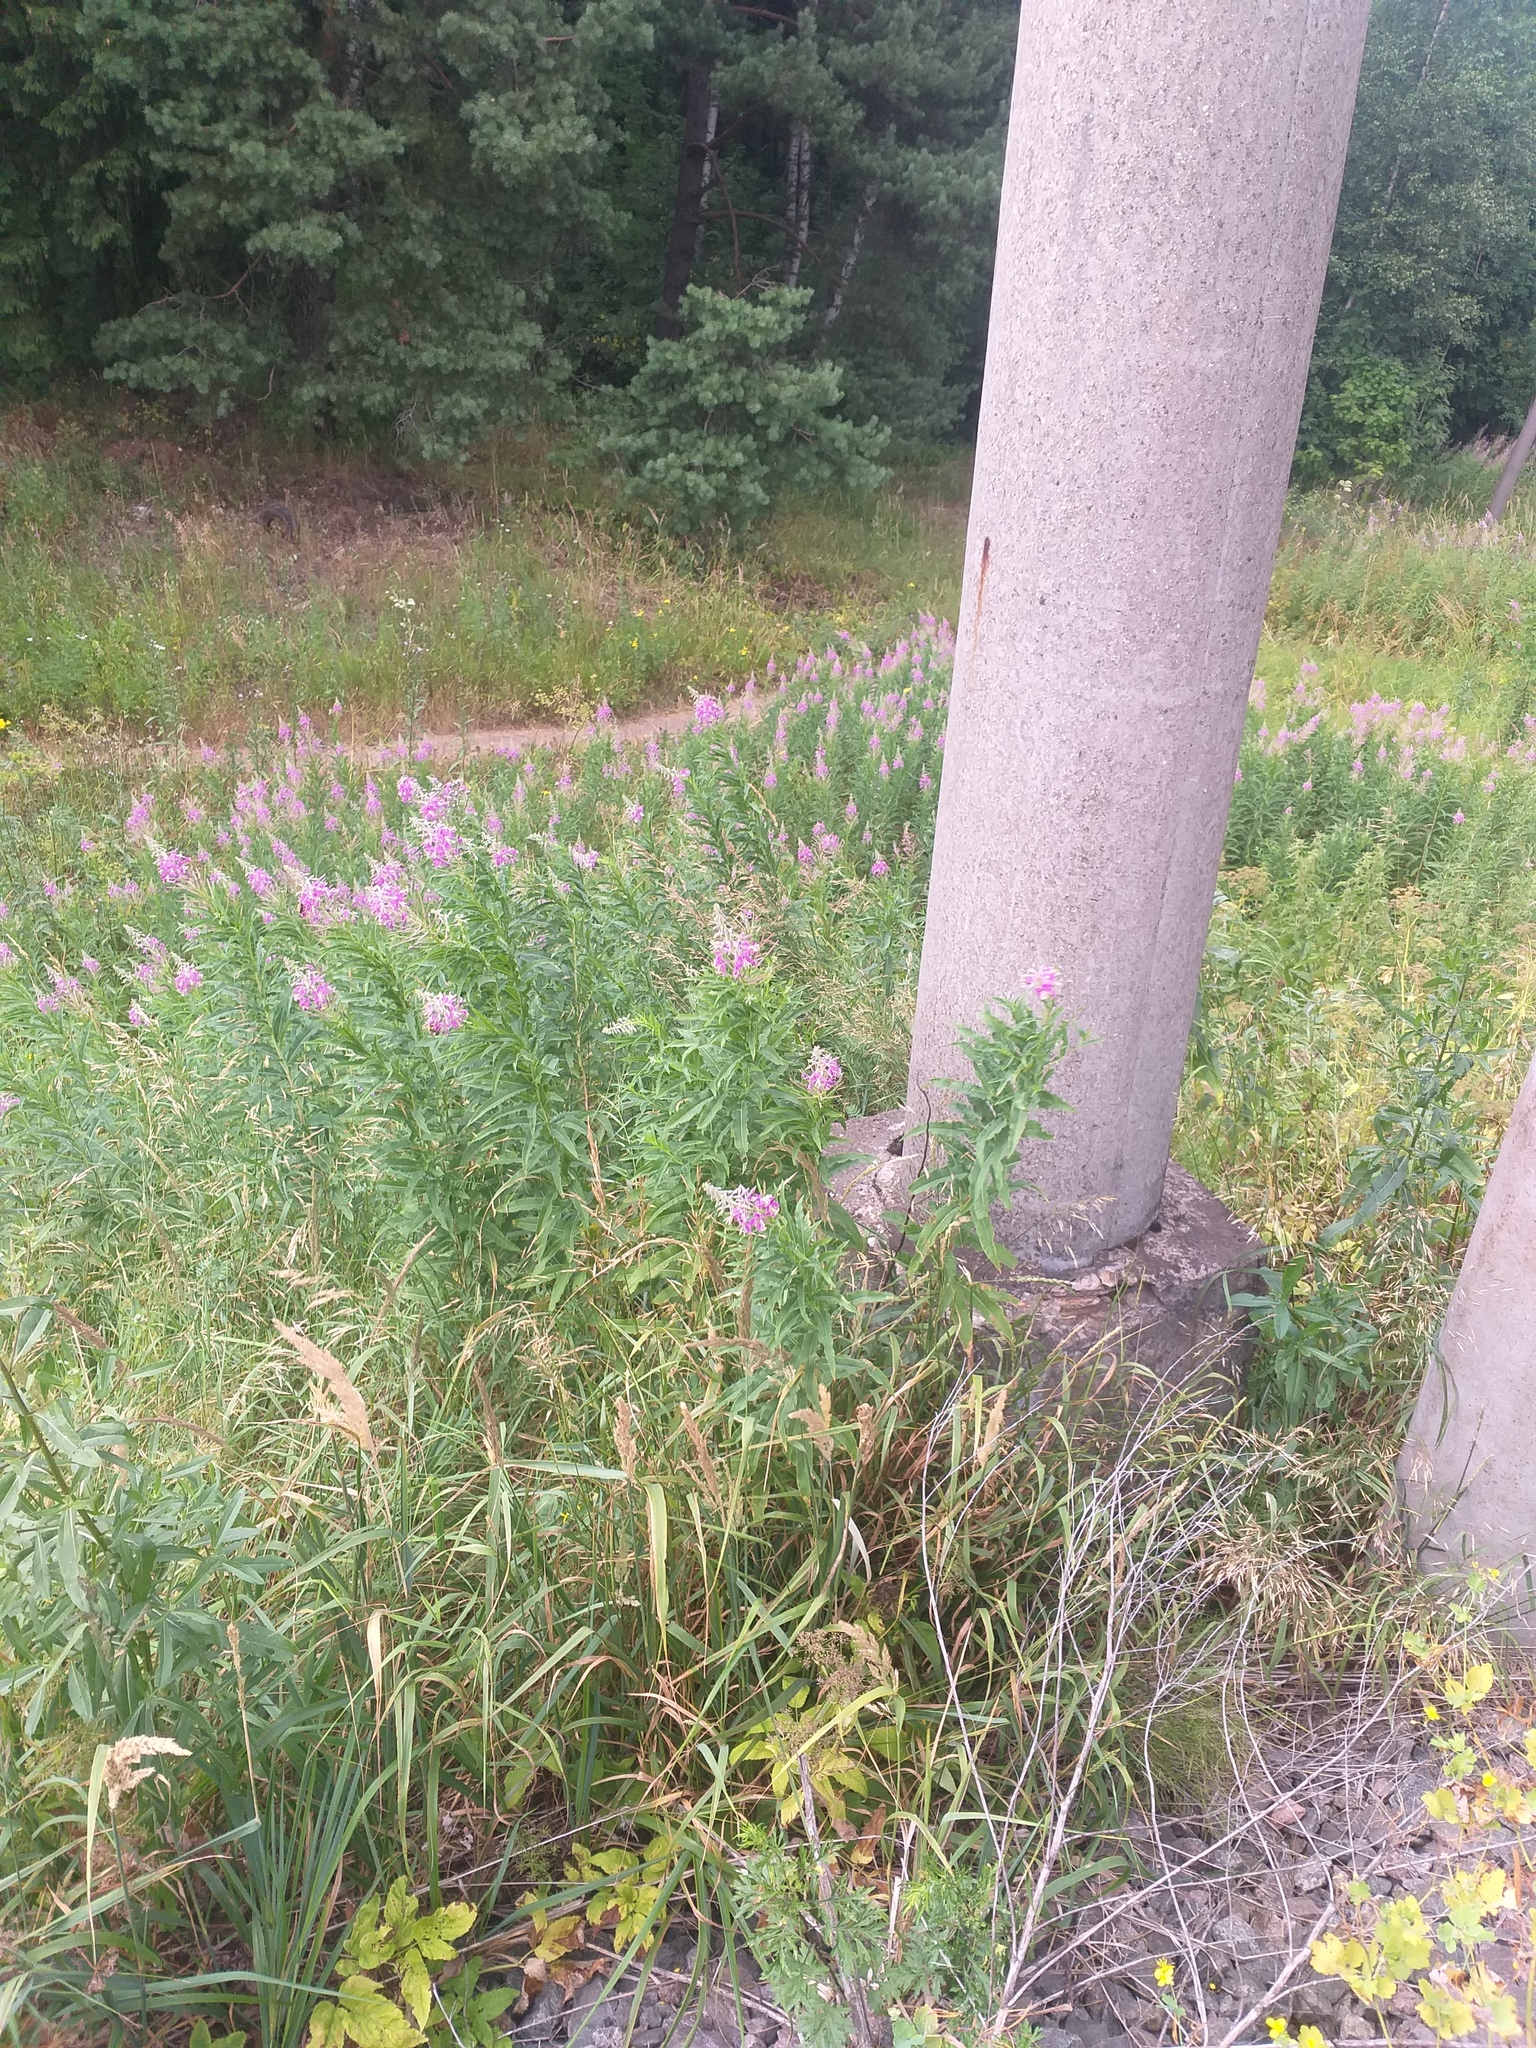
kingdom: Plantae
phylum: Tracheophyta
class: Magnoliopsida
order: Myrtales
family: Onagraceae
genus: Chamaenerion
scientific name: Chamaenerion angustifolium
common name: Fireweed
